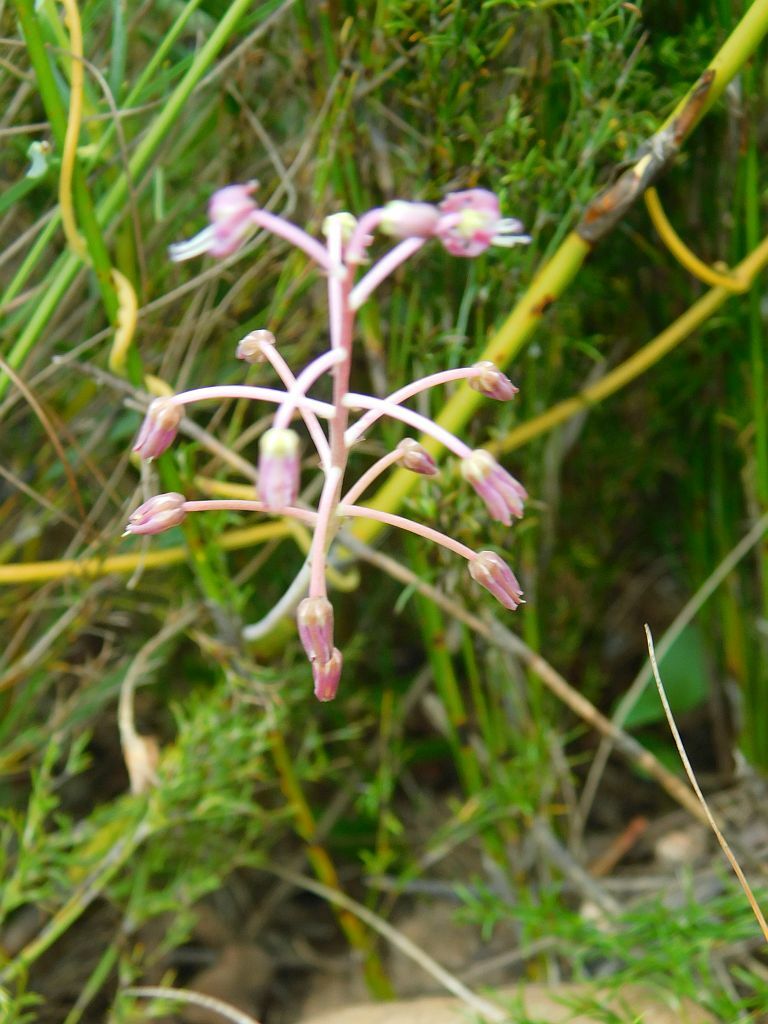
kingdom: Plantae
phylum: Tracheophyta
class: Liliopsida
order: Asparagales
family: Asparagaceae
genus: Ledebouria
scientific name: Ledebouria ovalifolia
